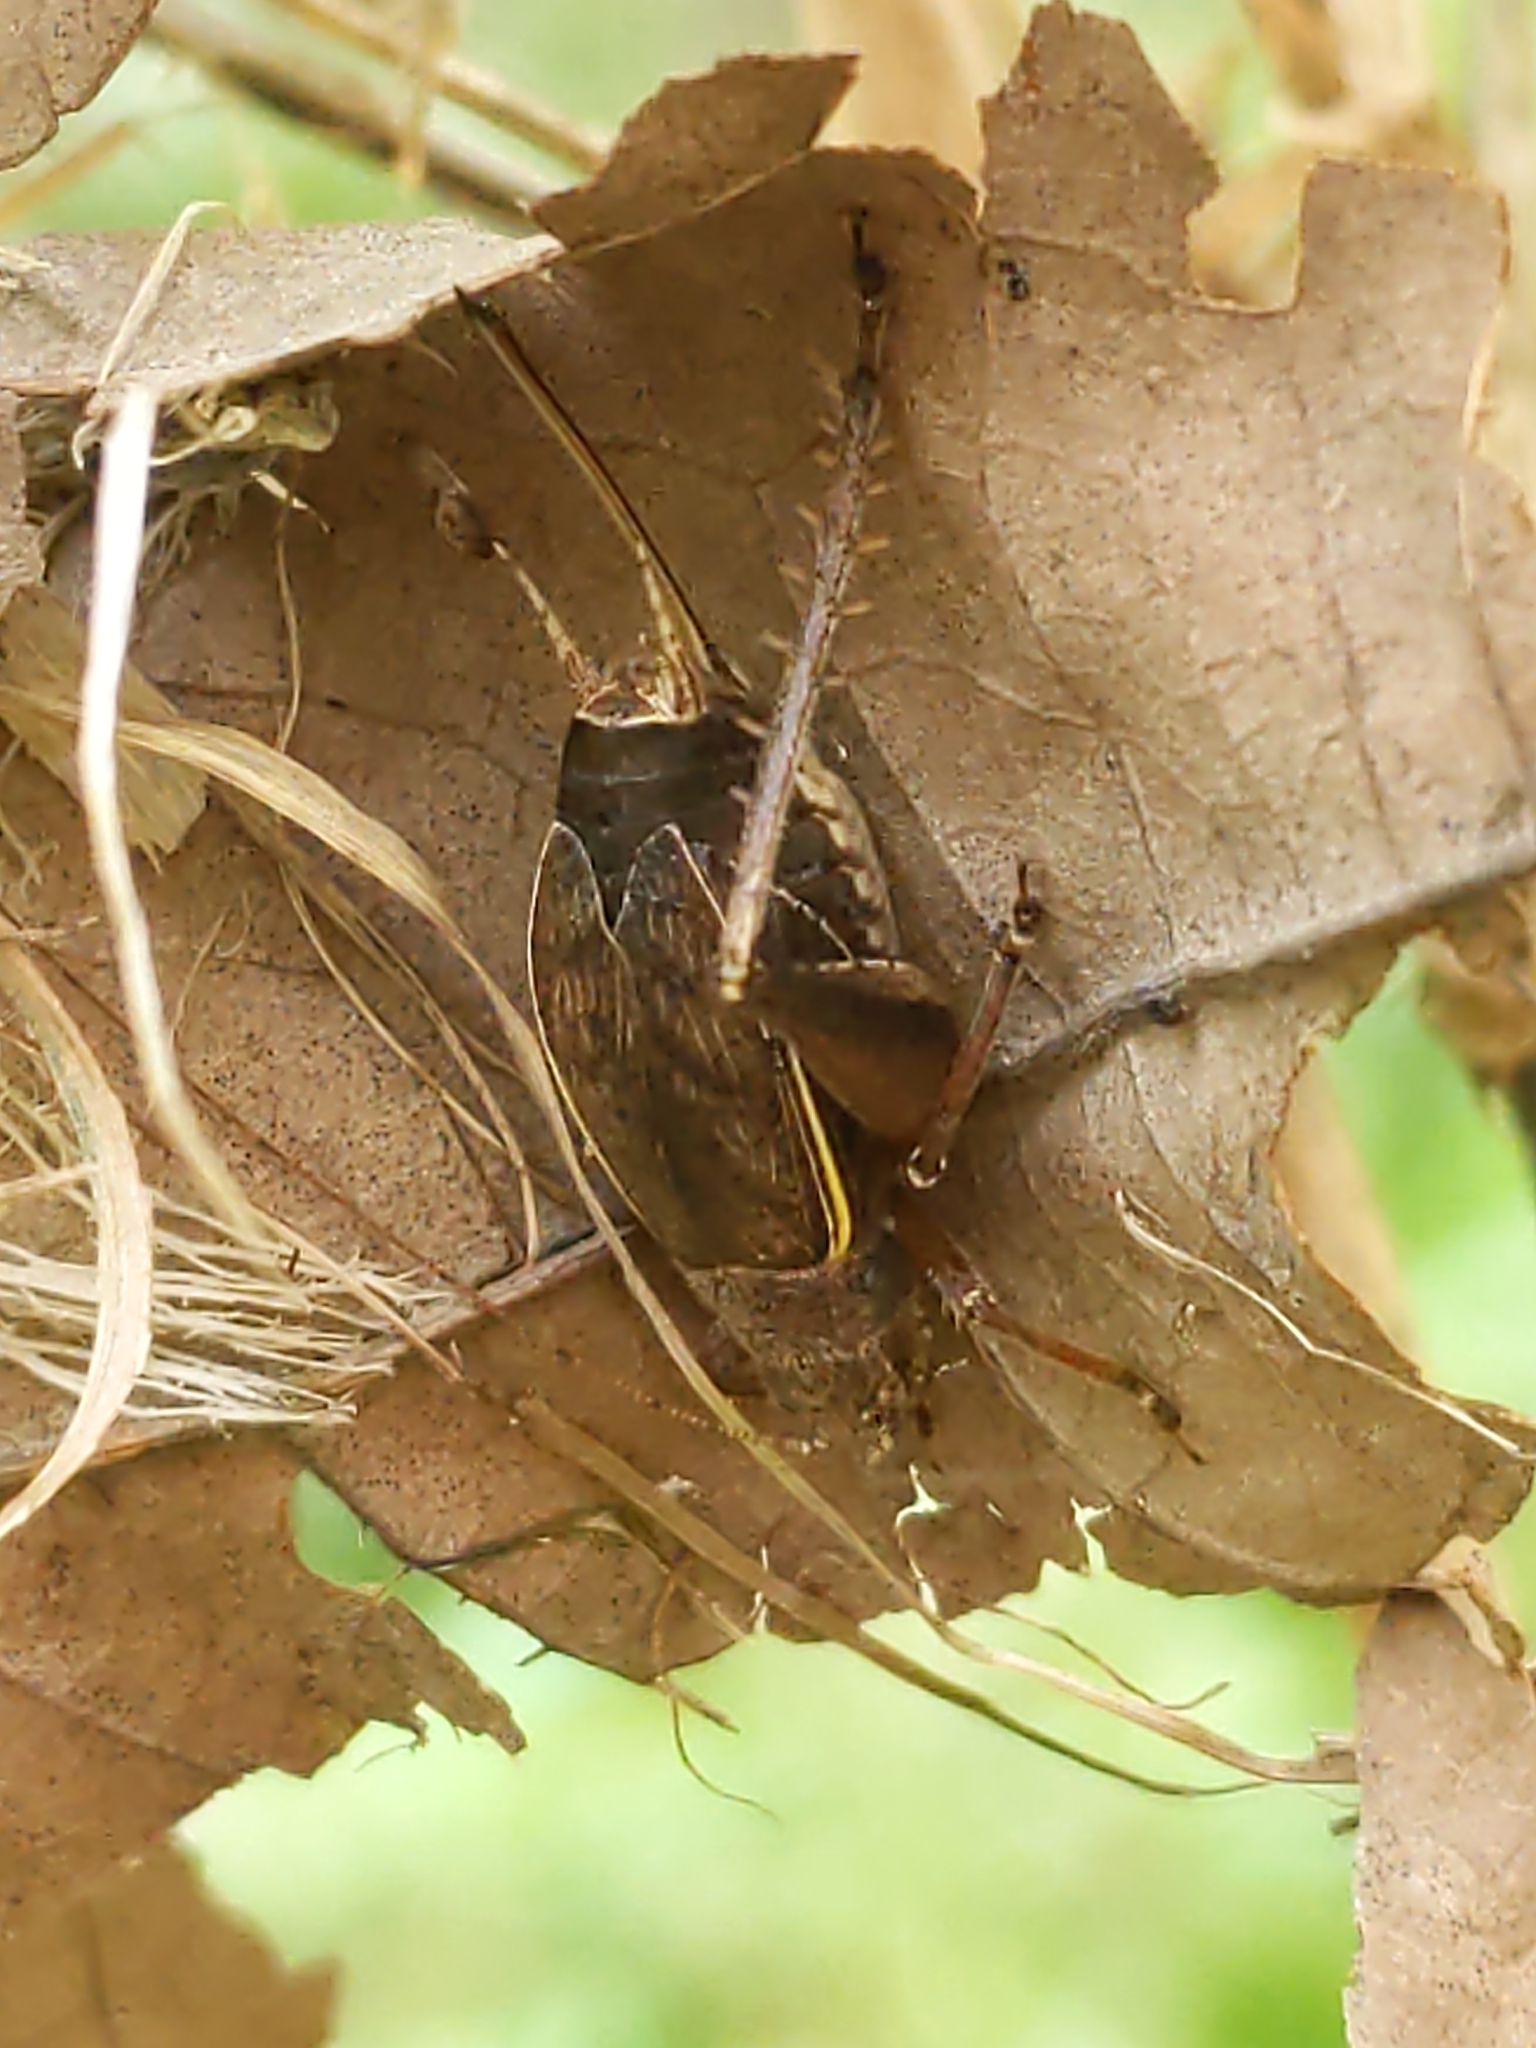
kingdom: Animalia
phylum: Arthropoda
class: Insecta
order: Orthoptera
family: Gryllidae
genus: Hapithus
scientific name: Hapithus agitator
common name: Restless bush cricket
